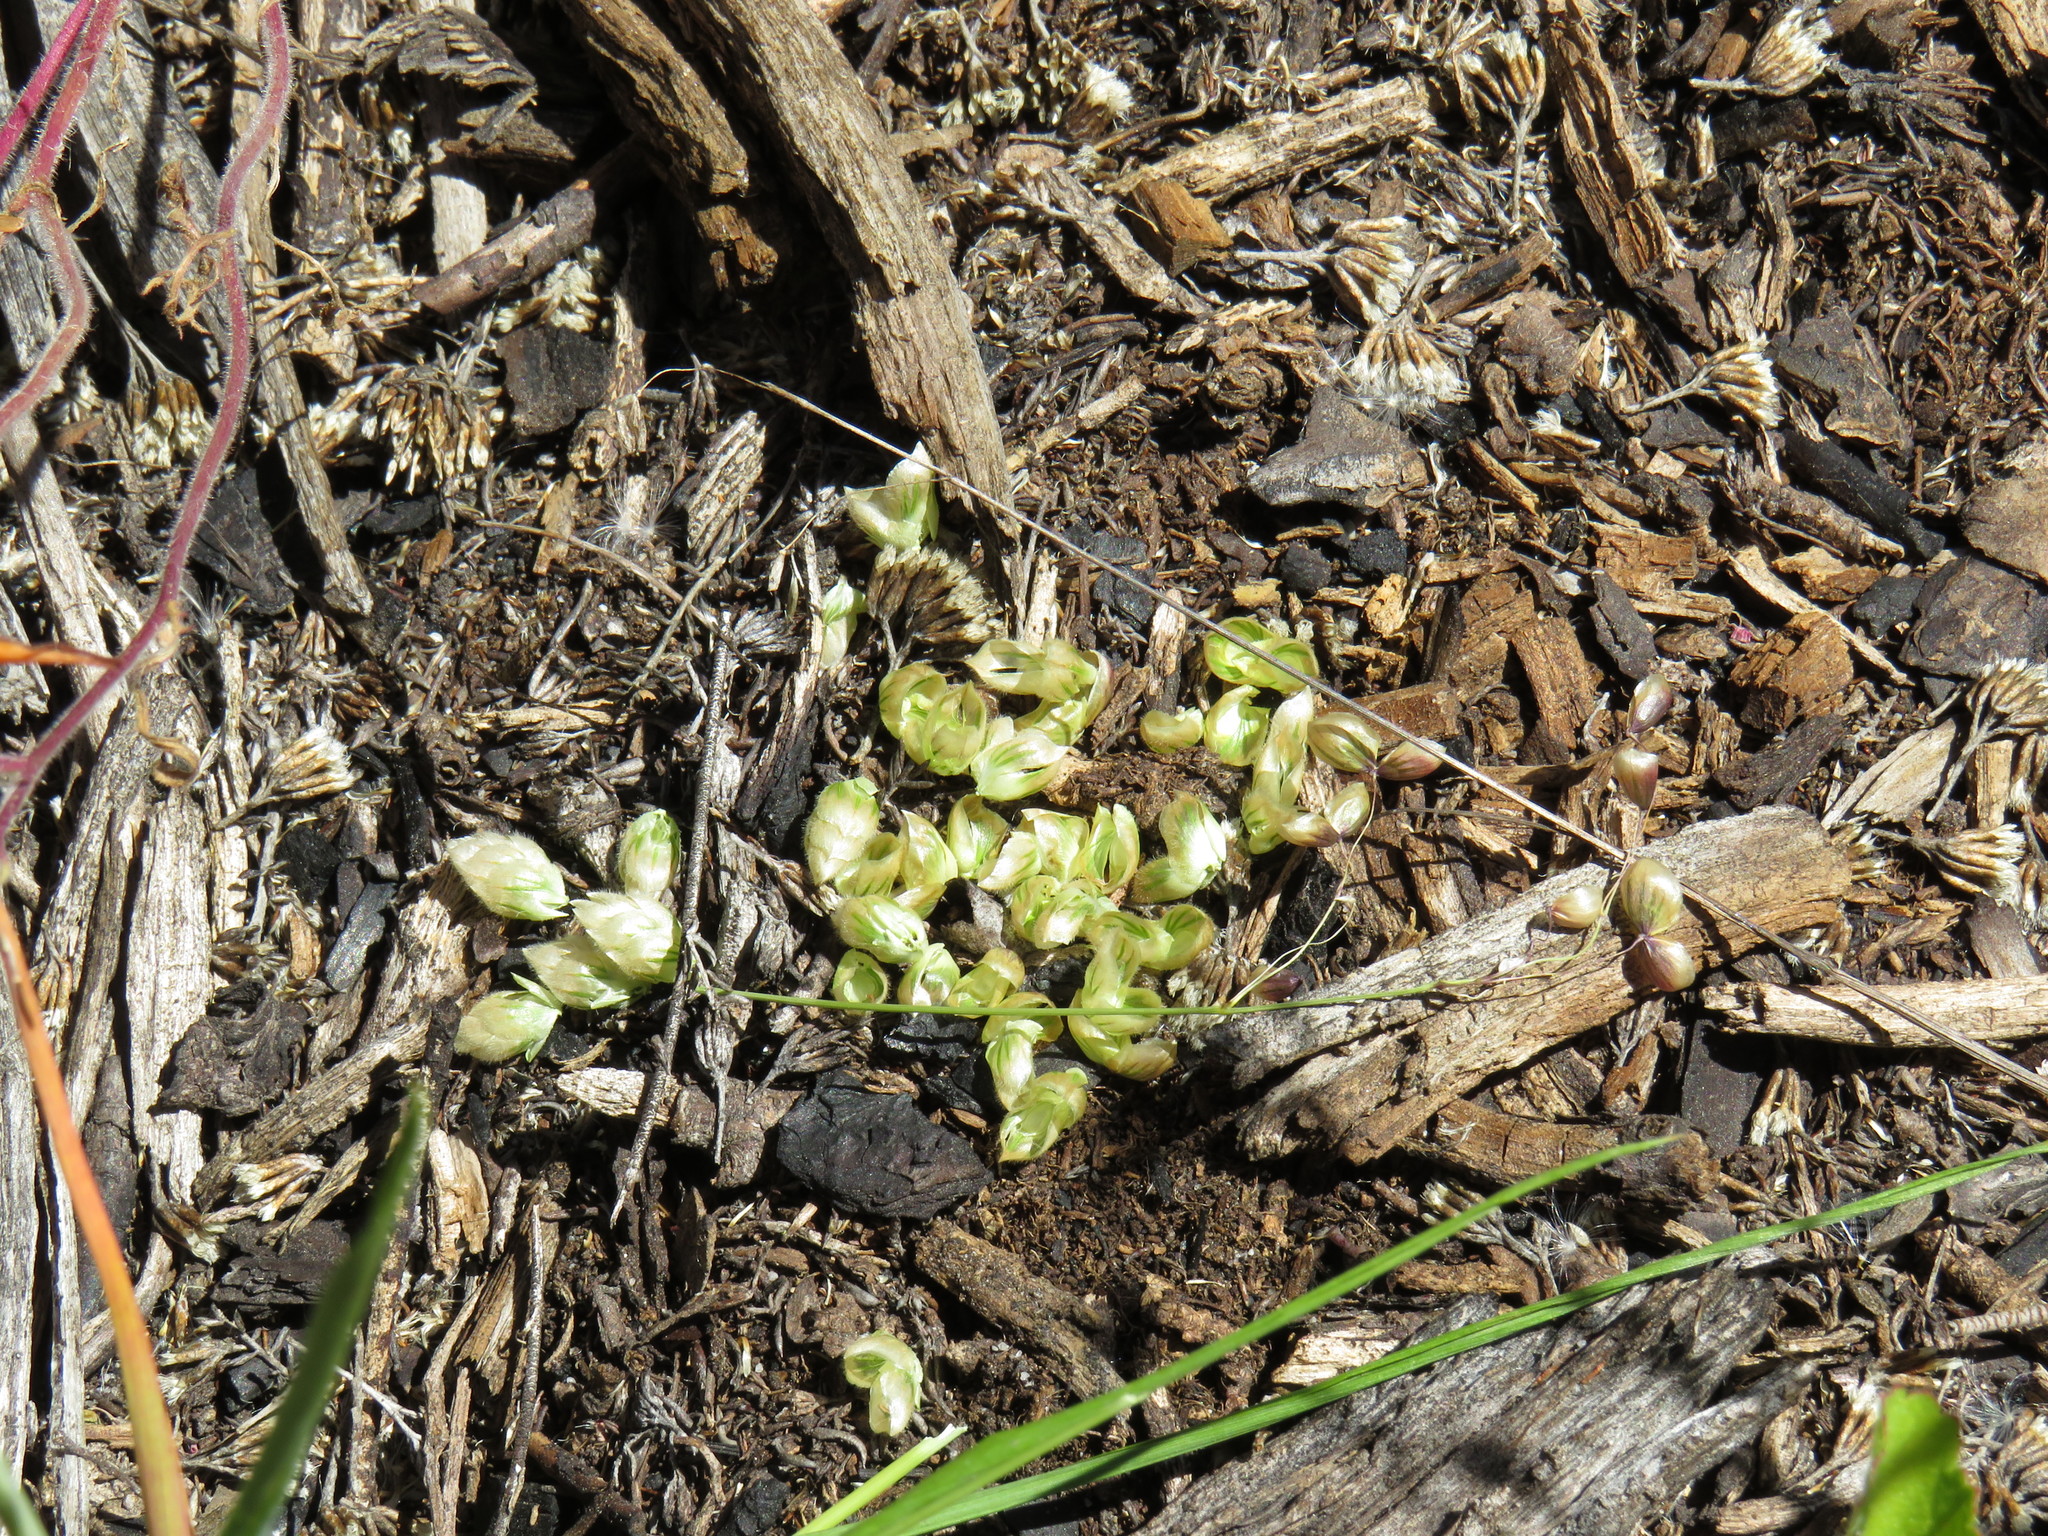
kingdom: Plantae
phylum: Tracheophyta
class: Liliopsida
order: Poales
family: Poaceae
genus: Briza
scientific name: Briza maxima
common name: Big quakinggrass
